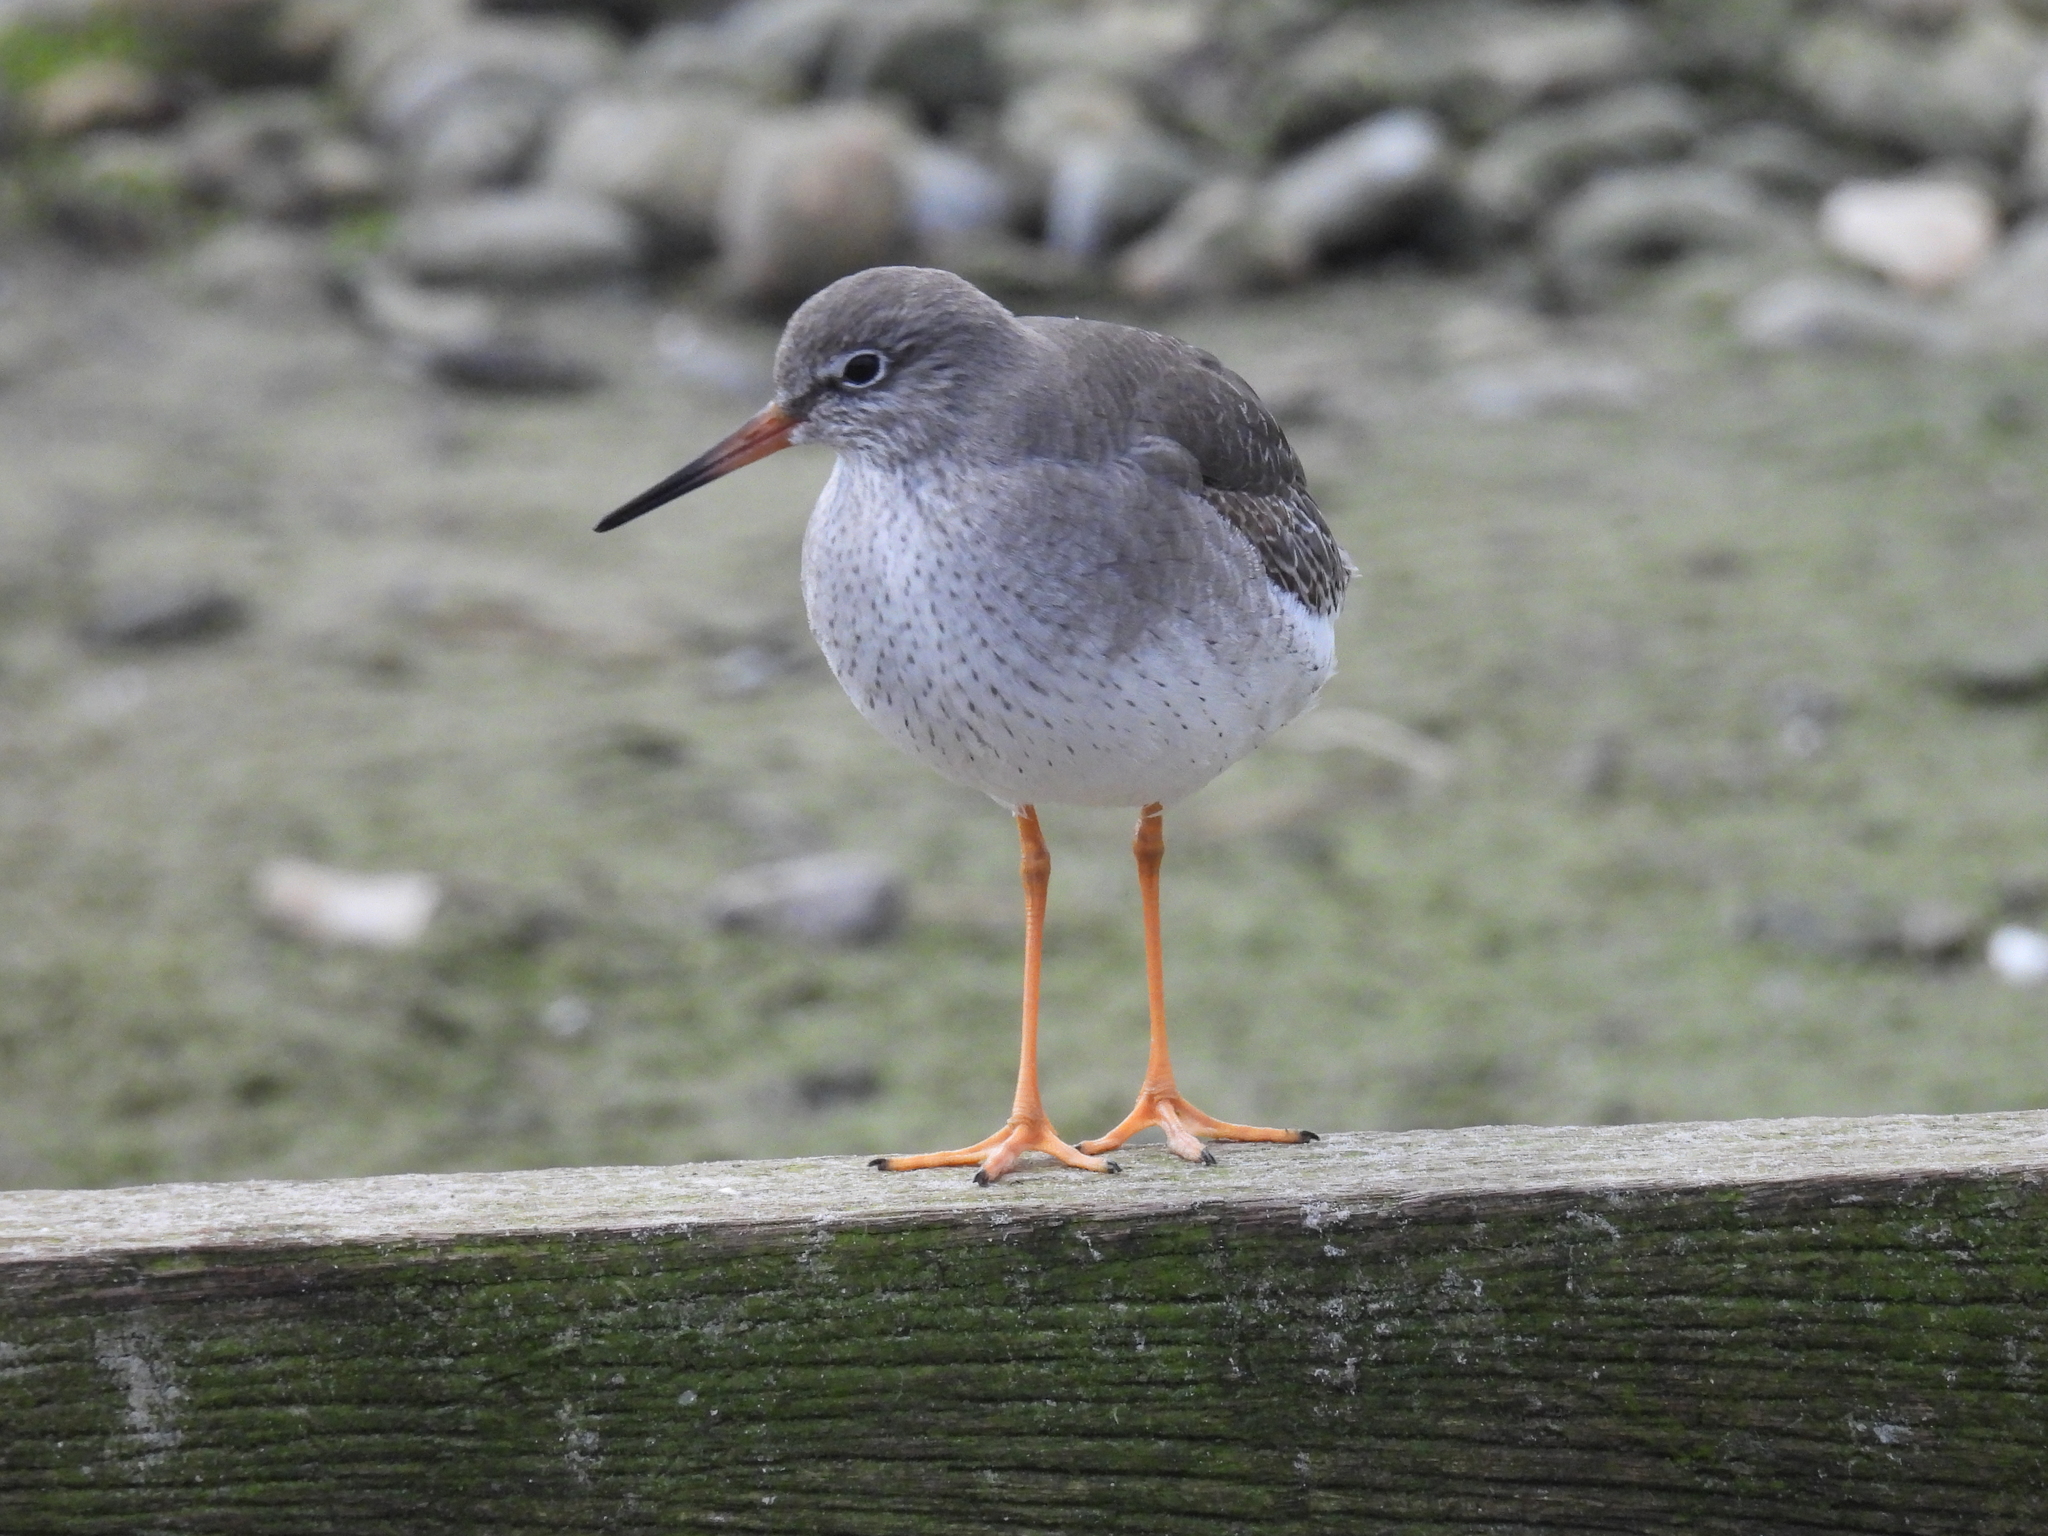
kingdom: Animalia
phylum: Chordata
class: Aves
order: Charadriiformes
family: Scolopacidae
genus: Tringa
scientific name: Tringa totanus
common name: Common redshank
